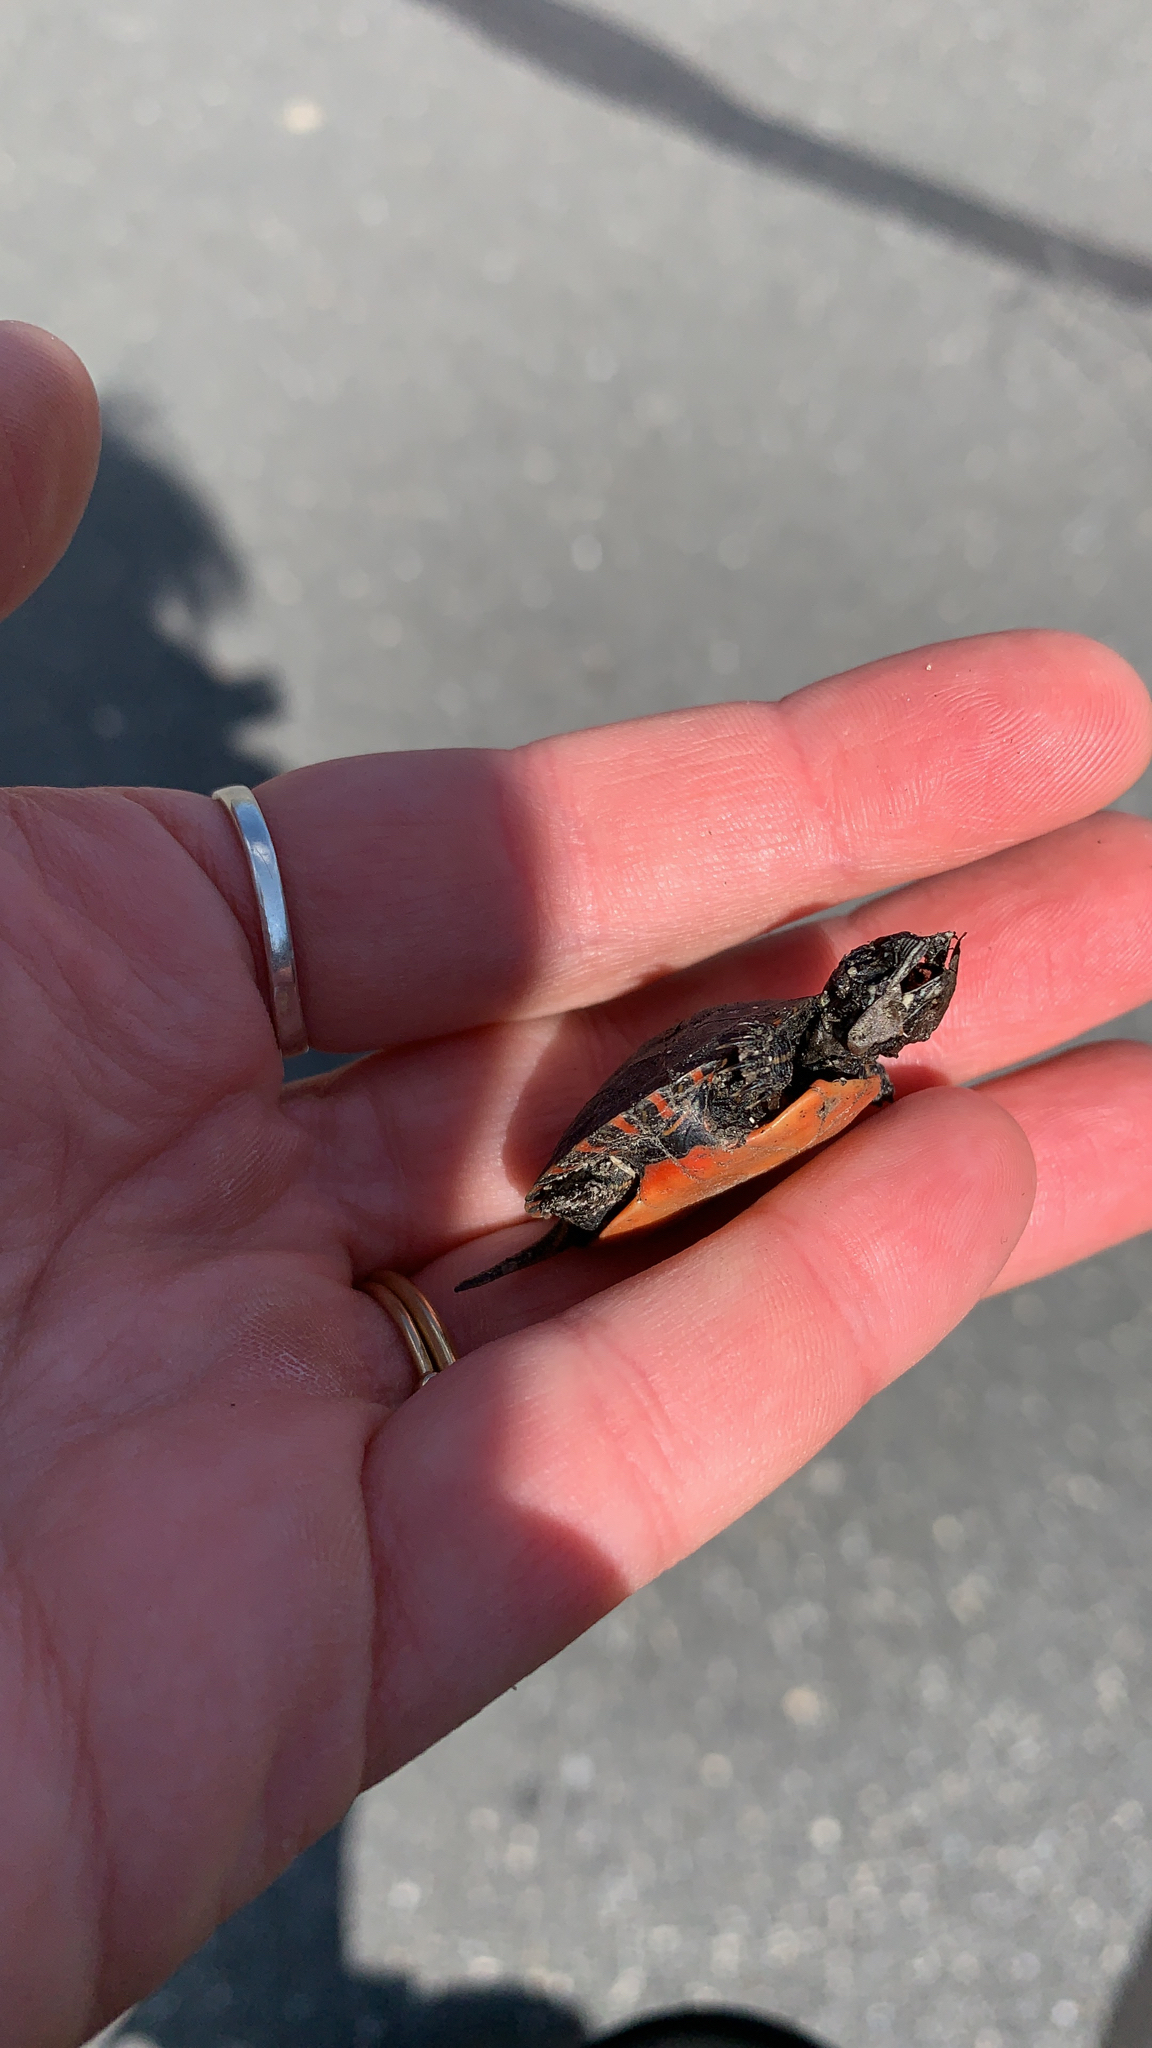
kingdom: Animalia
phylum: Chordata
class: Testudines
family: Emydidae
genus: Chrysemys
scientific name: Chrysemys picta
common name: Painted turtle
